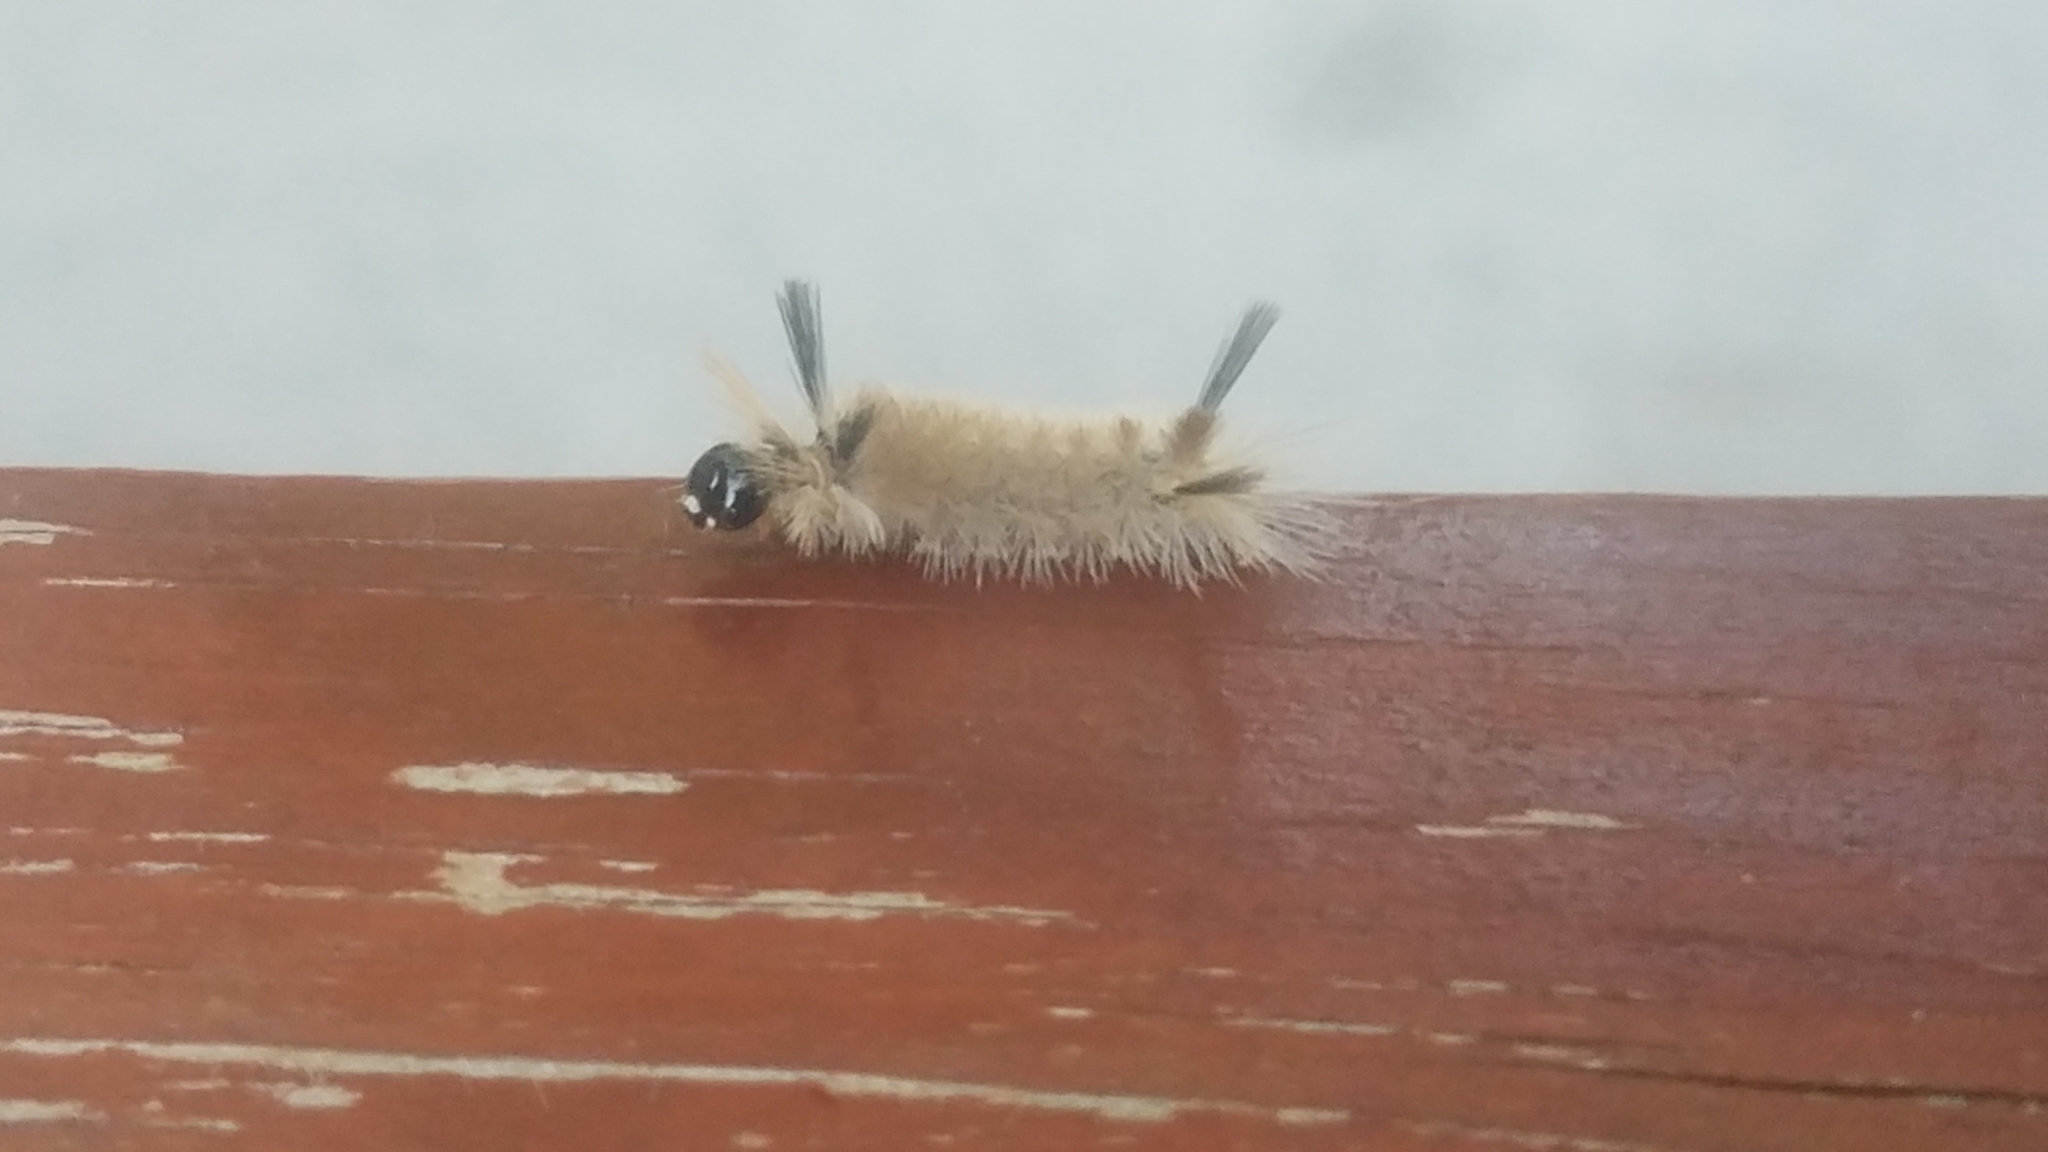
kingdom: Animalia
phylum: Arthropoda
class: Insecta
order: Lepidoptera
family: Erebidae
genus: Halysidota
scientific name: Halysidota tessellaris
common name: Banded tussock moth
